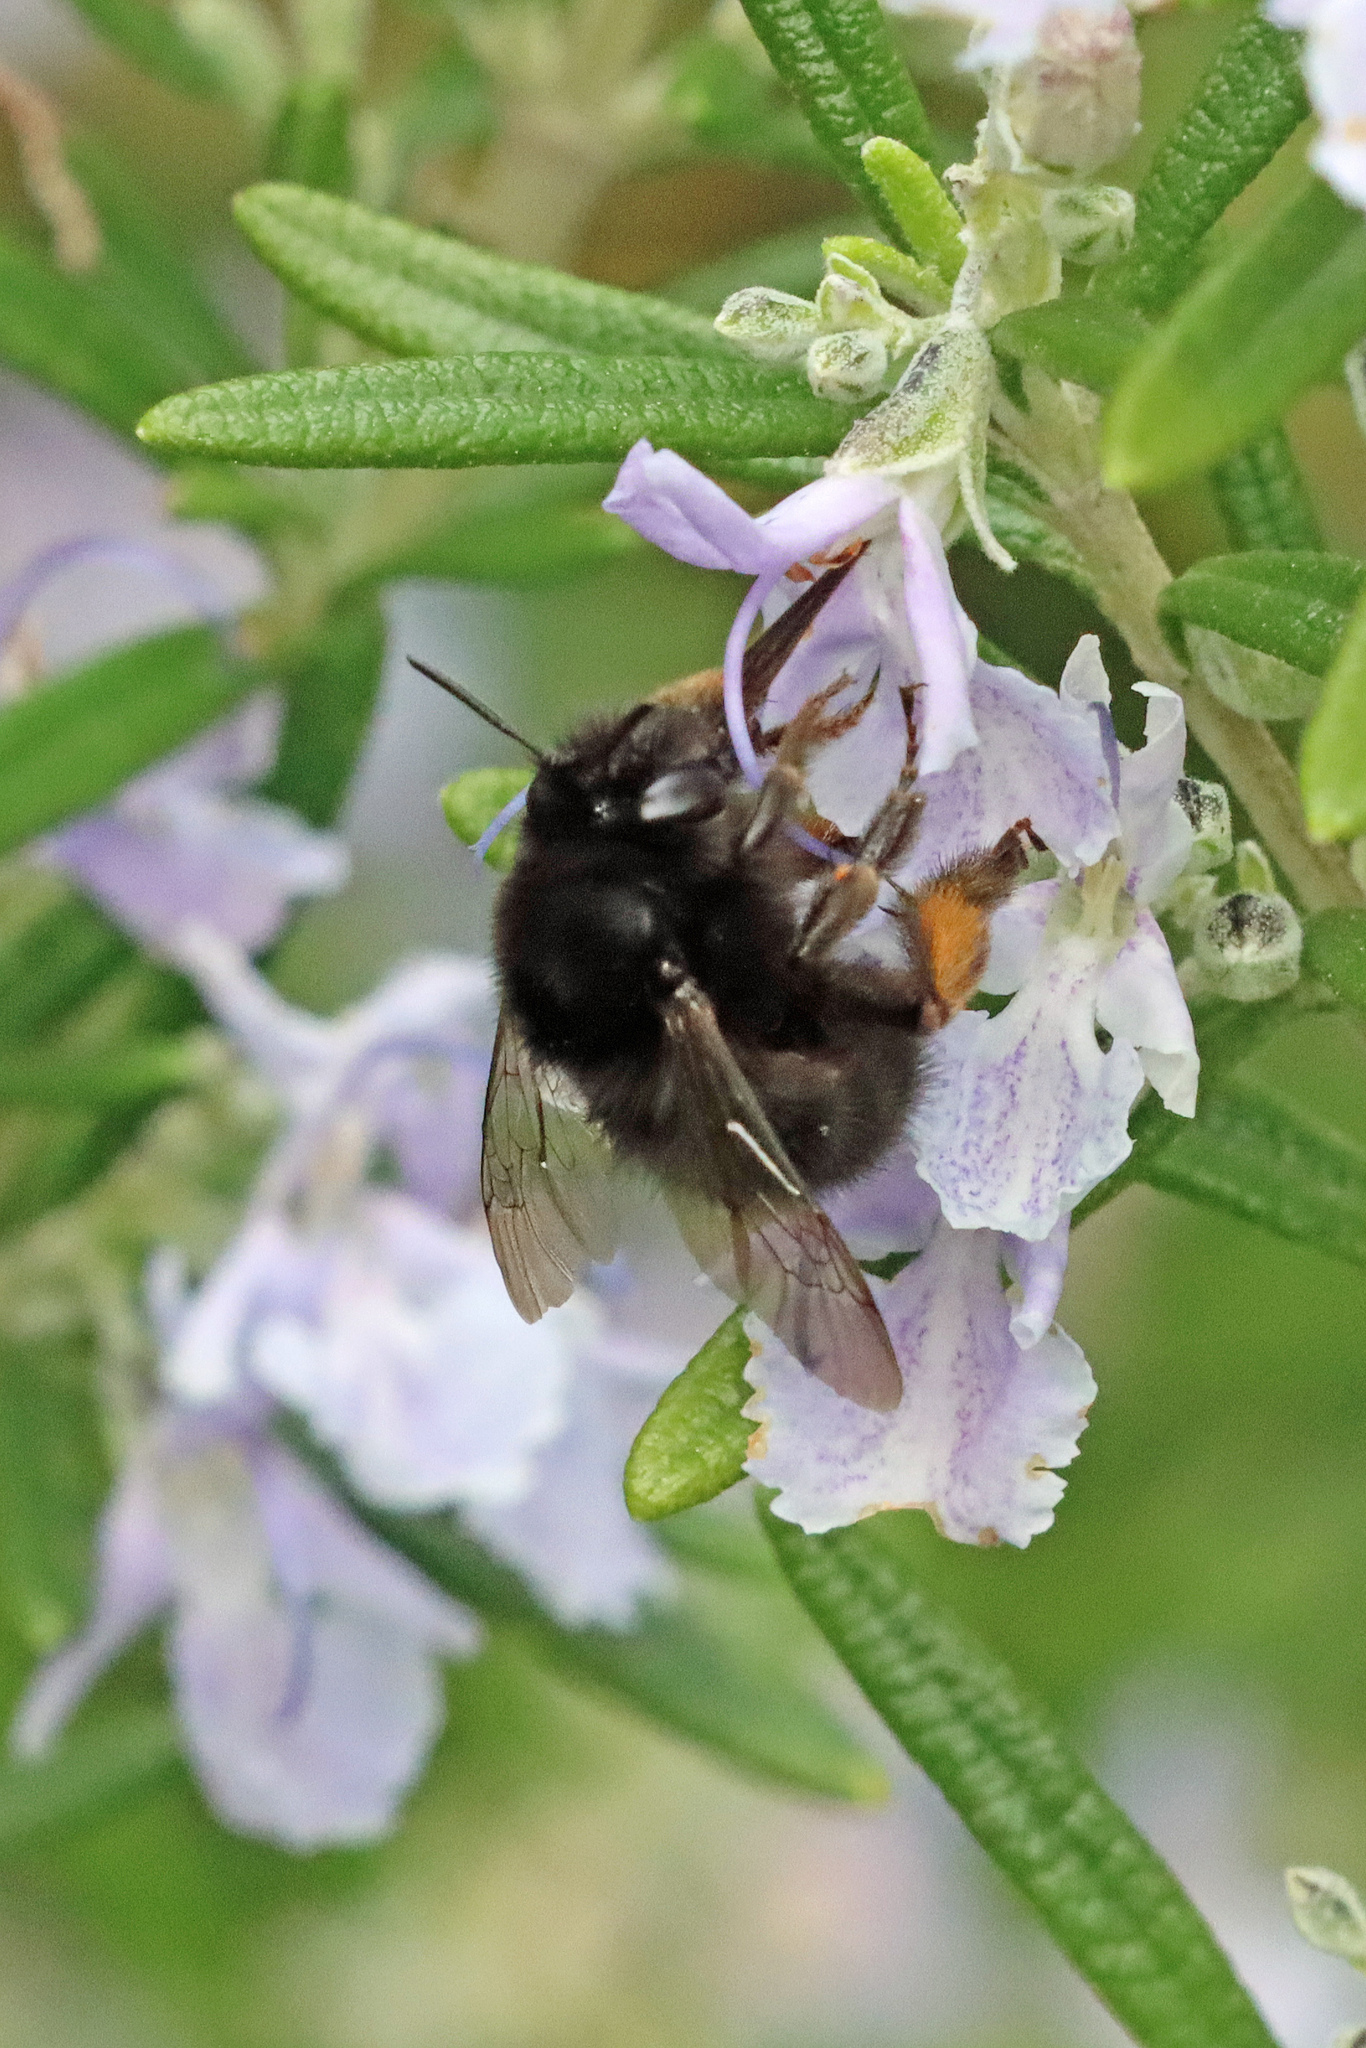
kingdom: Animalia
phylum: Arthropoda
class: Insecta
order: Hymenoptera
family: Apidae
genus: Anthophora
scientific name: Anthophora plumipes
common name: Hairy-footed flower bee
